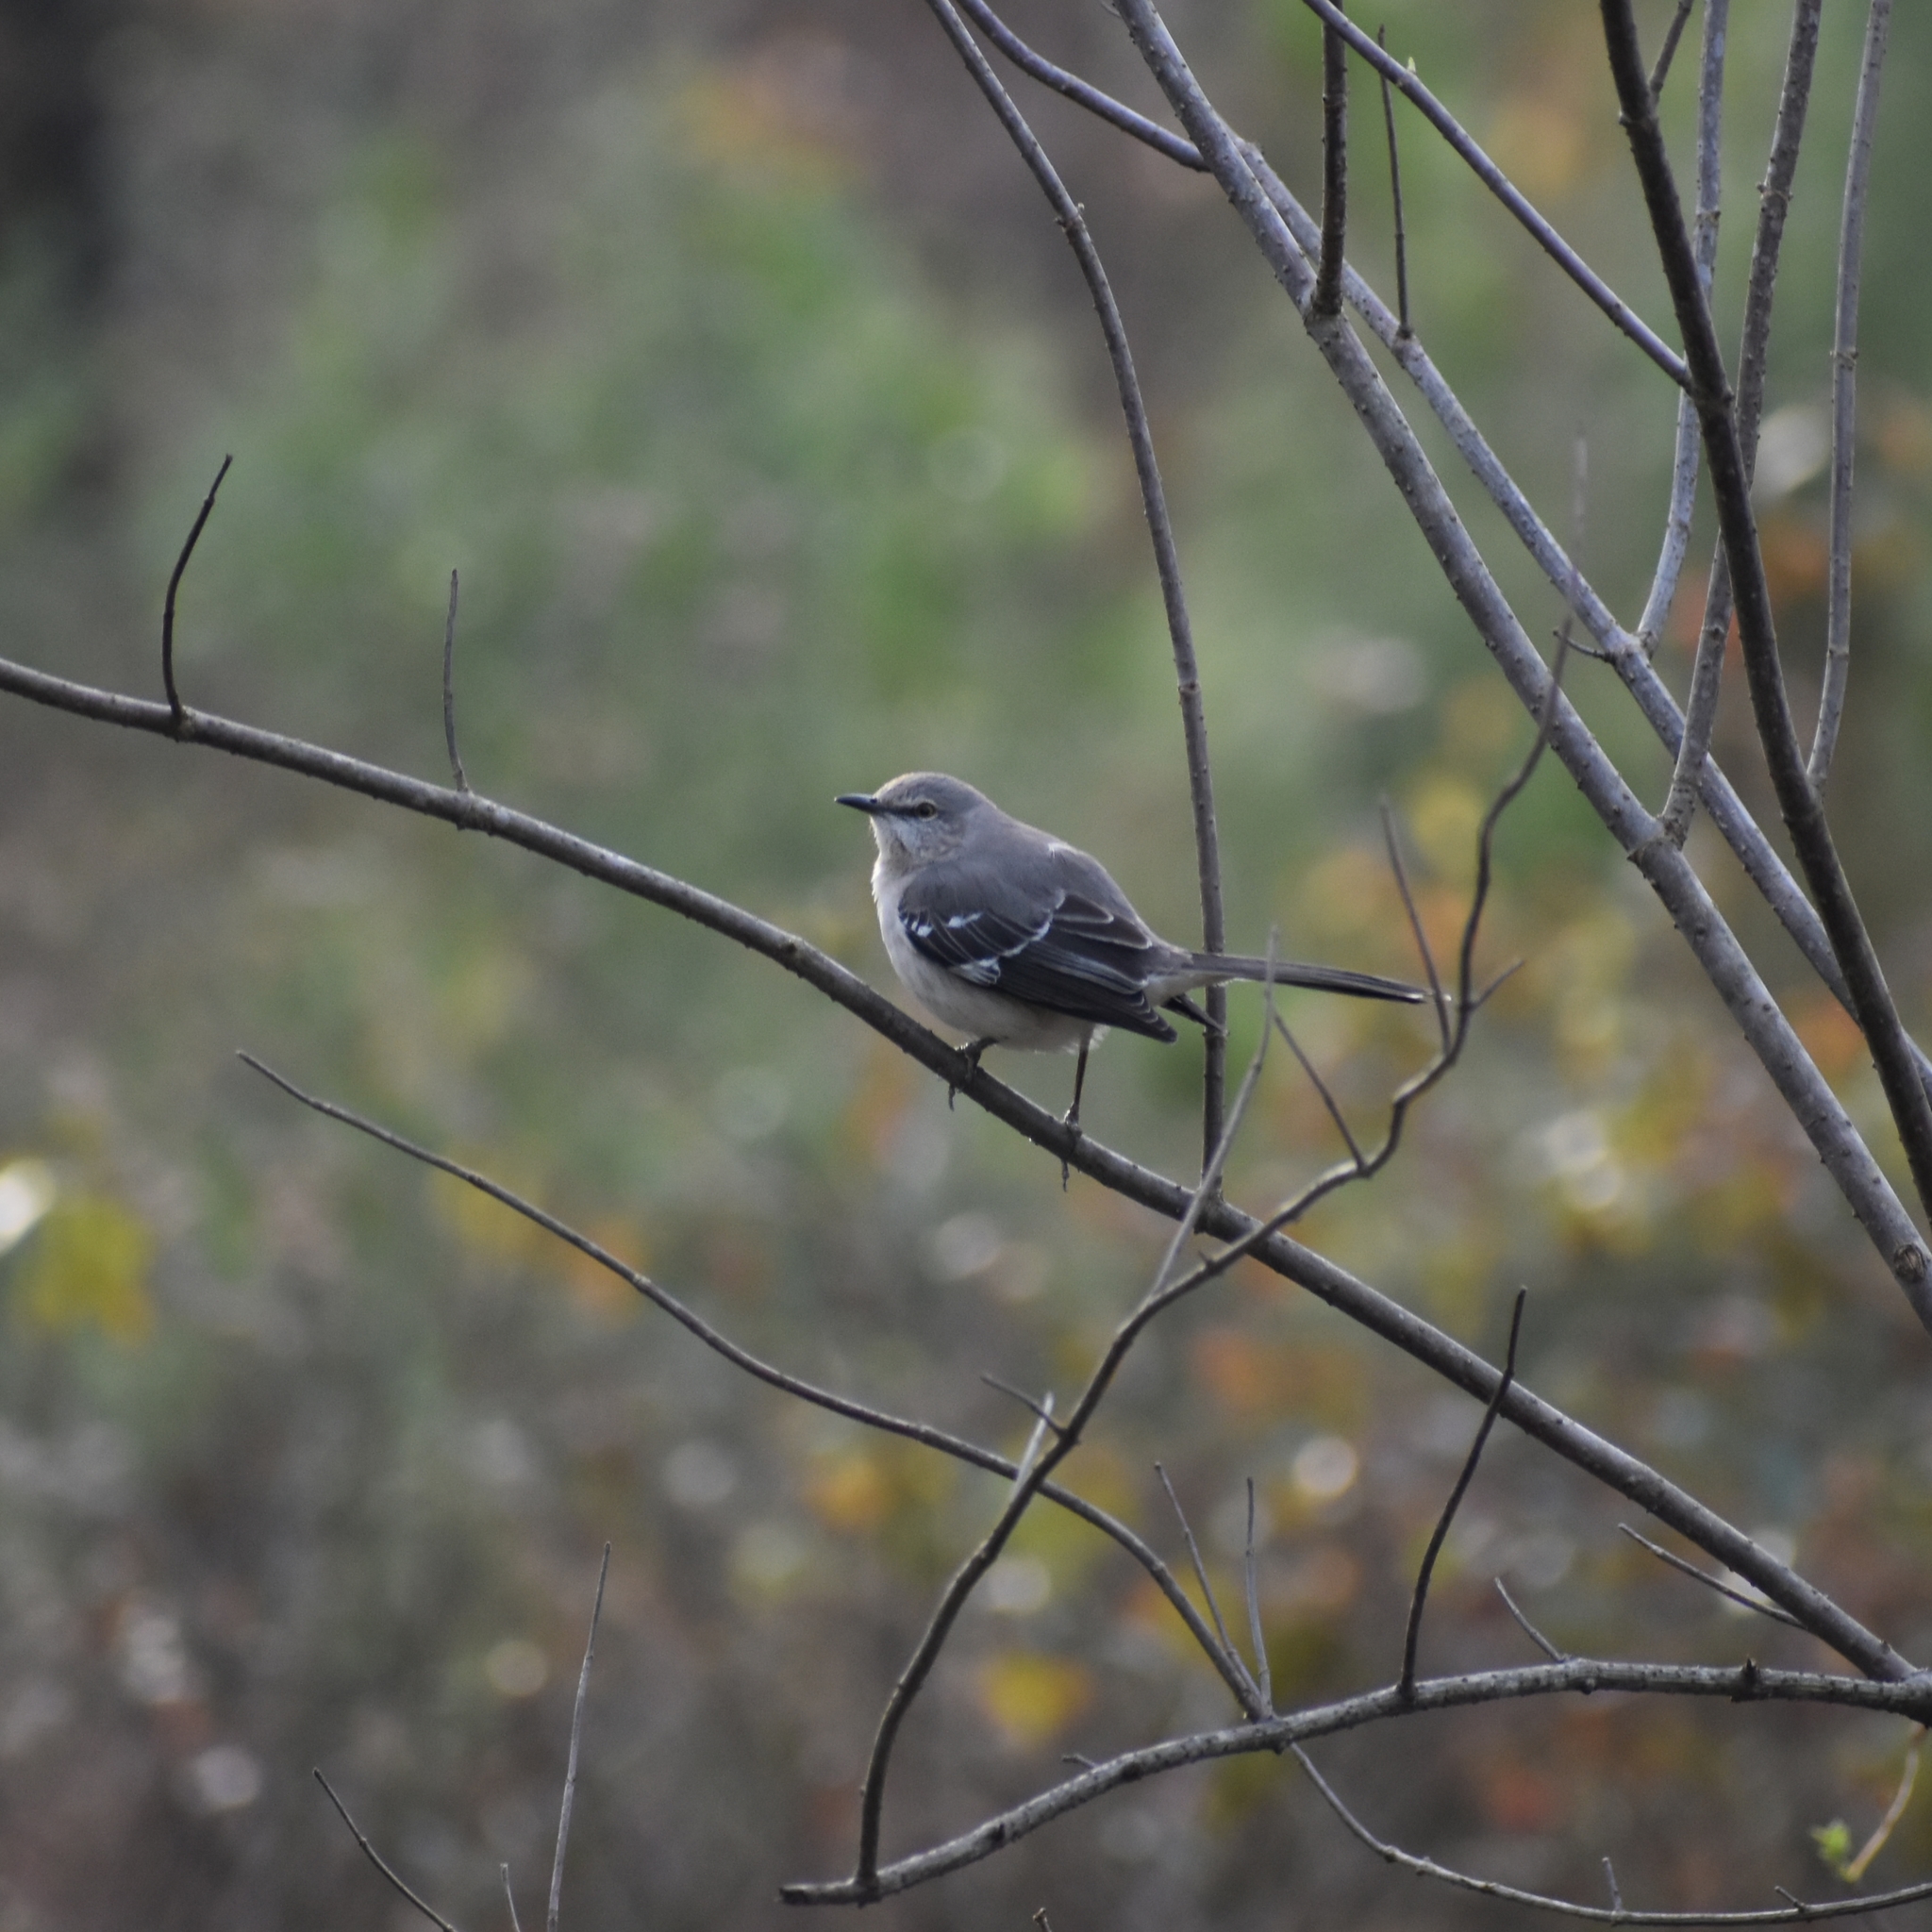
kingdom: Animalia
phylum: Chordata
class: Aves
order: Passeriformes
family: Mimidae
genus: Mimus
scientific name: Mimus polyglottos
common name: Northern mockingbird
